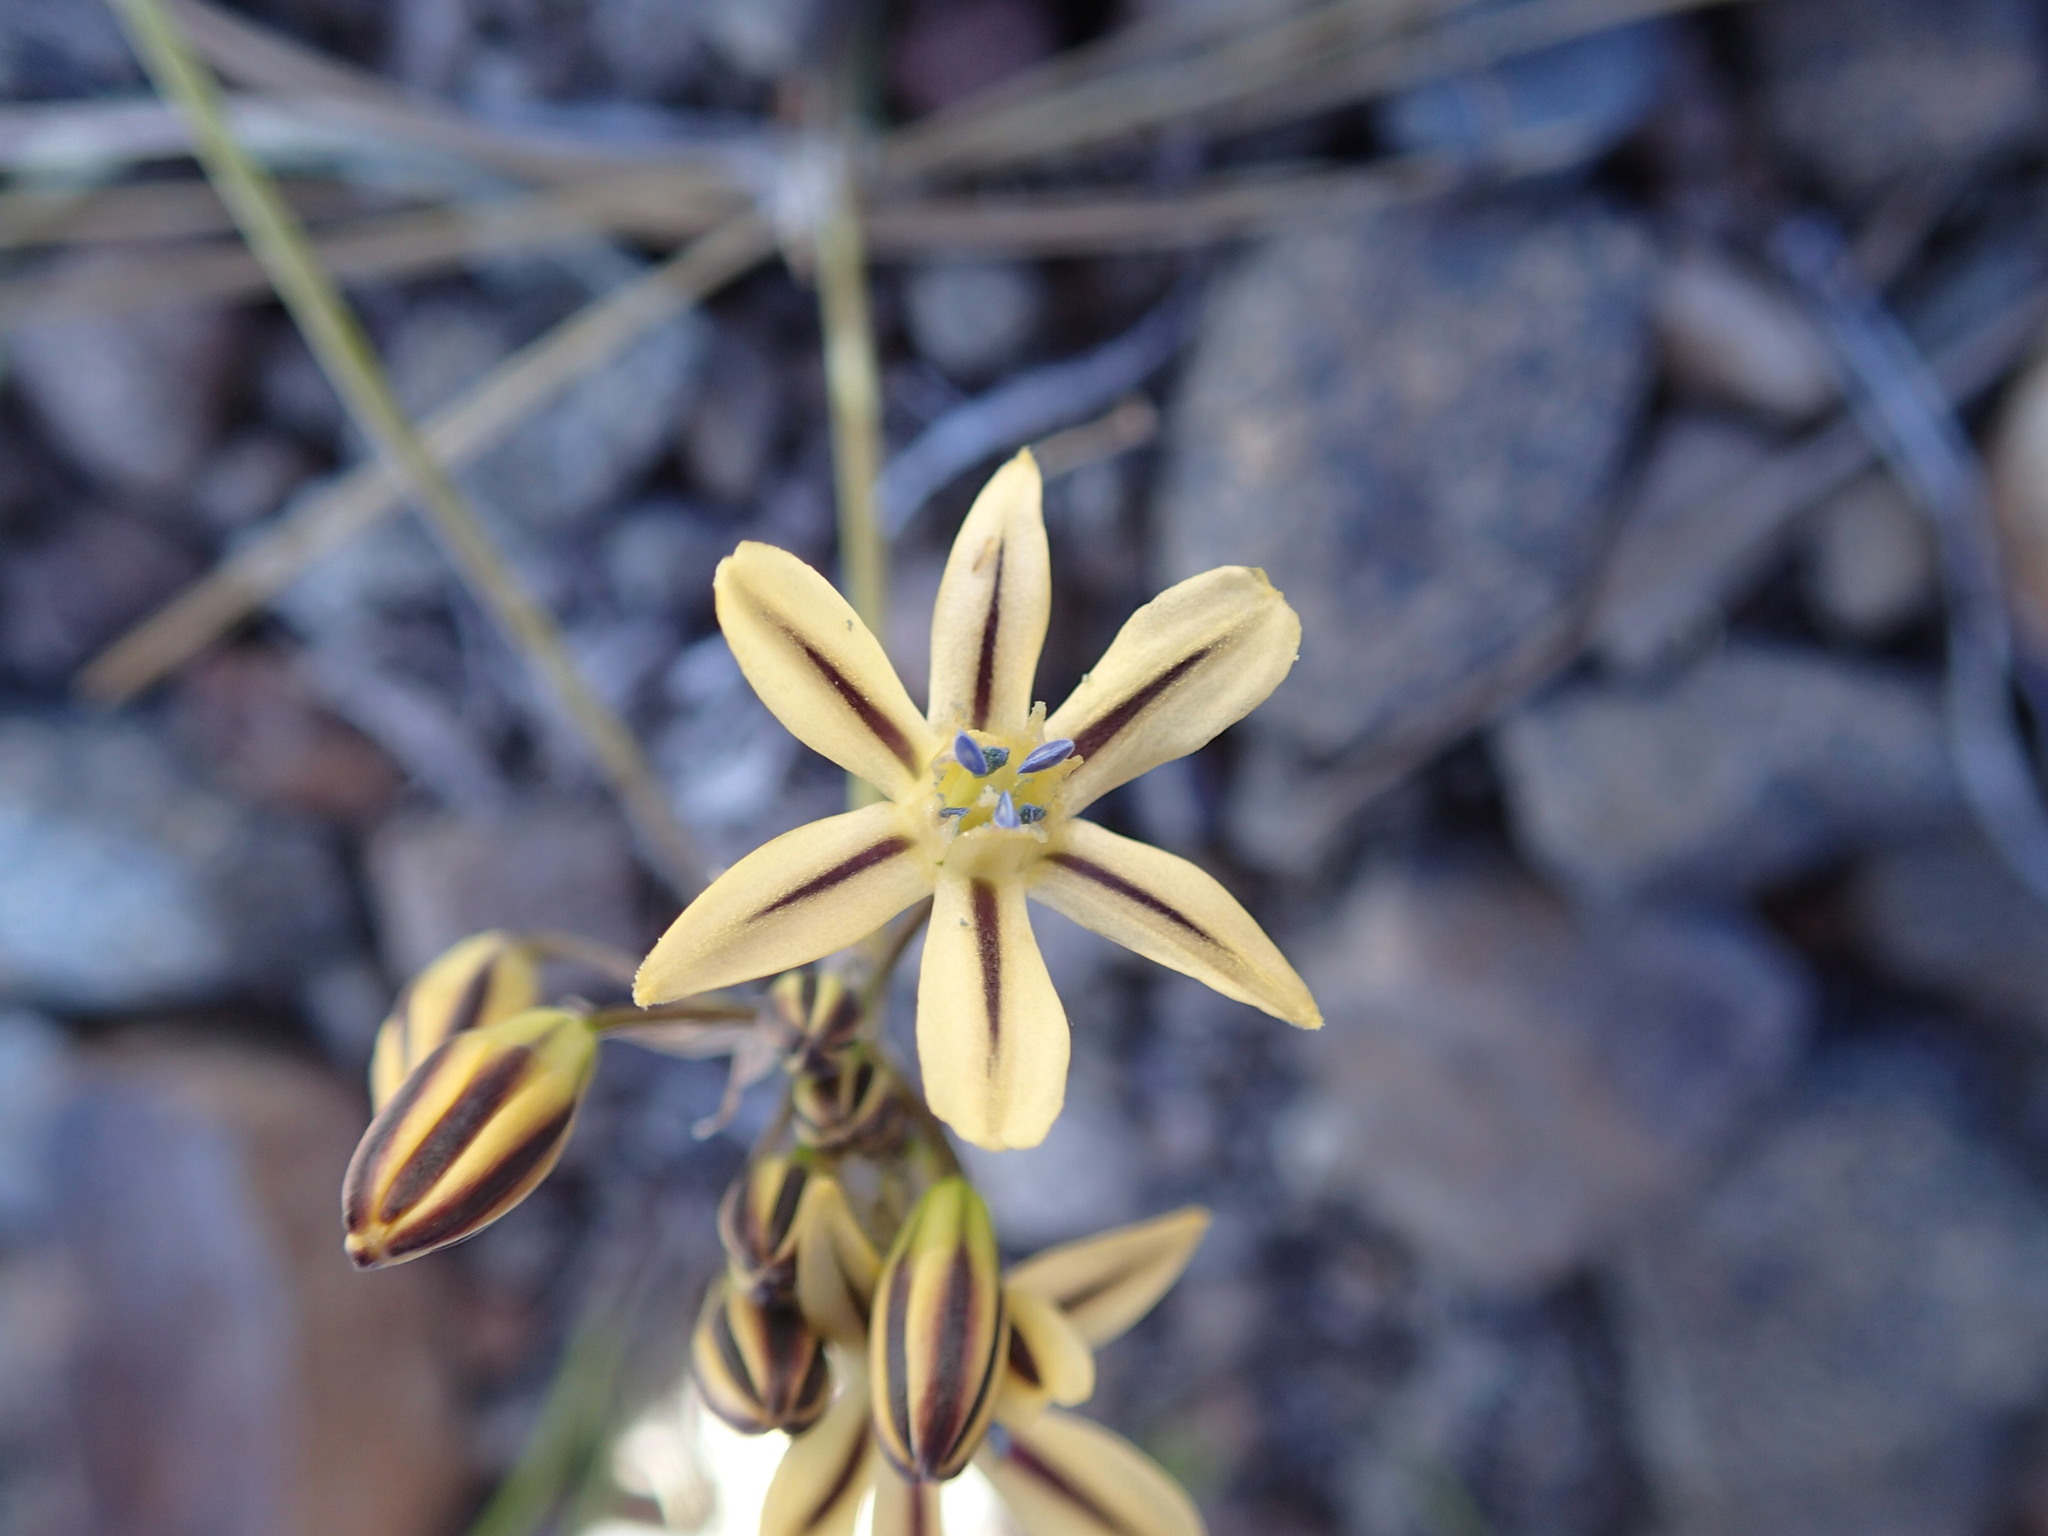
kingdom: Plantae
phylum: Tracheophyta
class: Liliopsida
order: Asparagales
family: Asparagaceae
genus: Triteleia
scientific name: Triteleia ixioides
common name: Yellow-brodiaea
